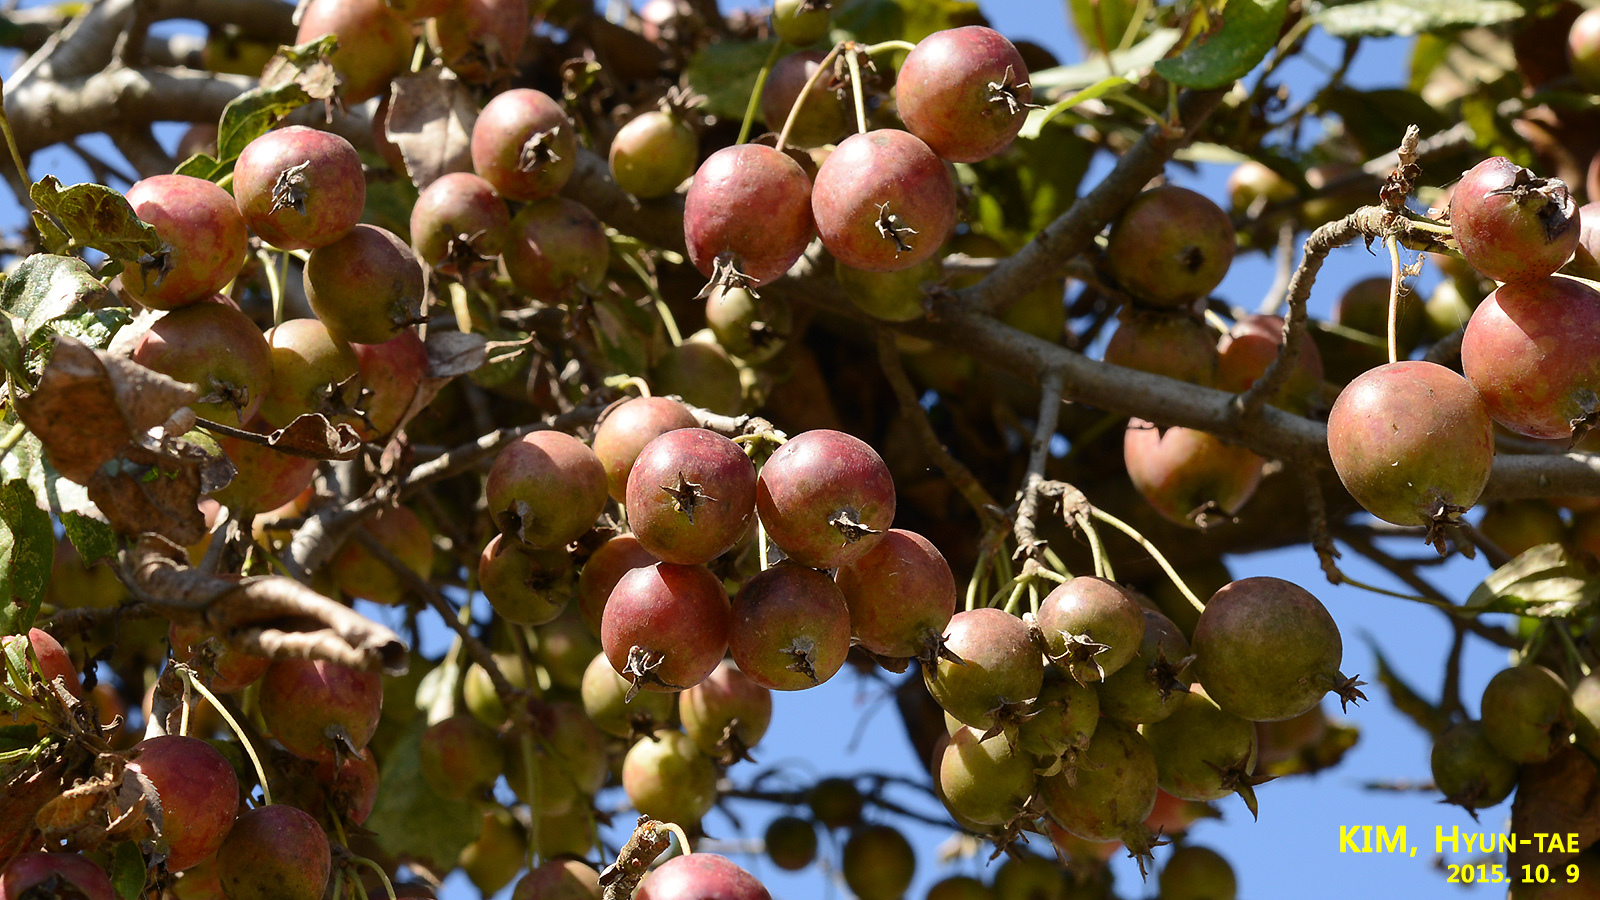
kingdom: Plantae
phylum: Tracheophyta
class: Magnoliopsida
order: Rosales
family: Rosaceae
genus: Malus
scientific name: Malus prunifolia
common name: Chinese apple
